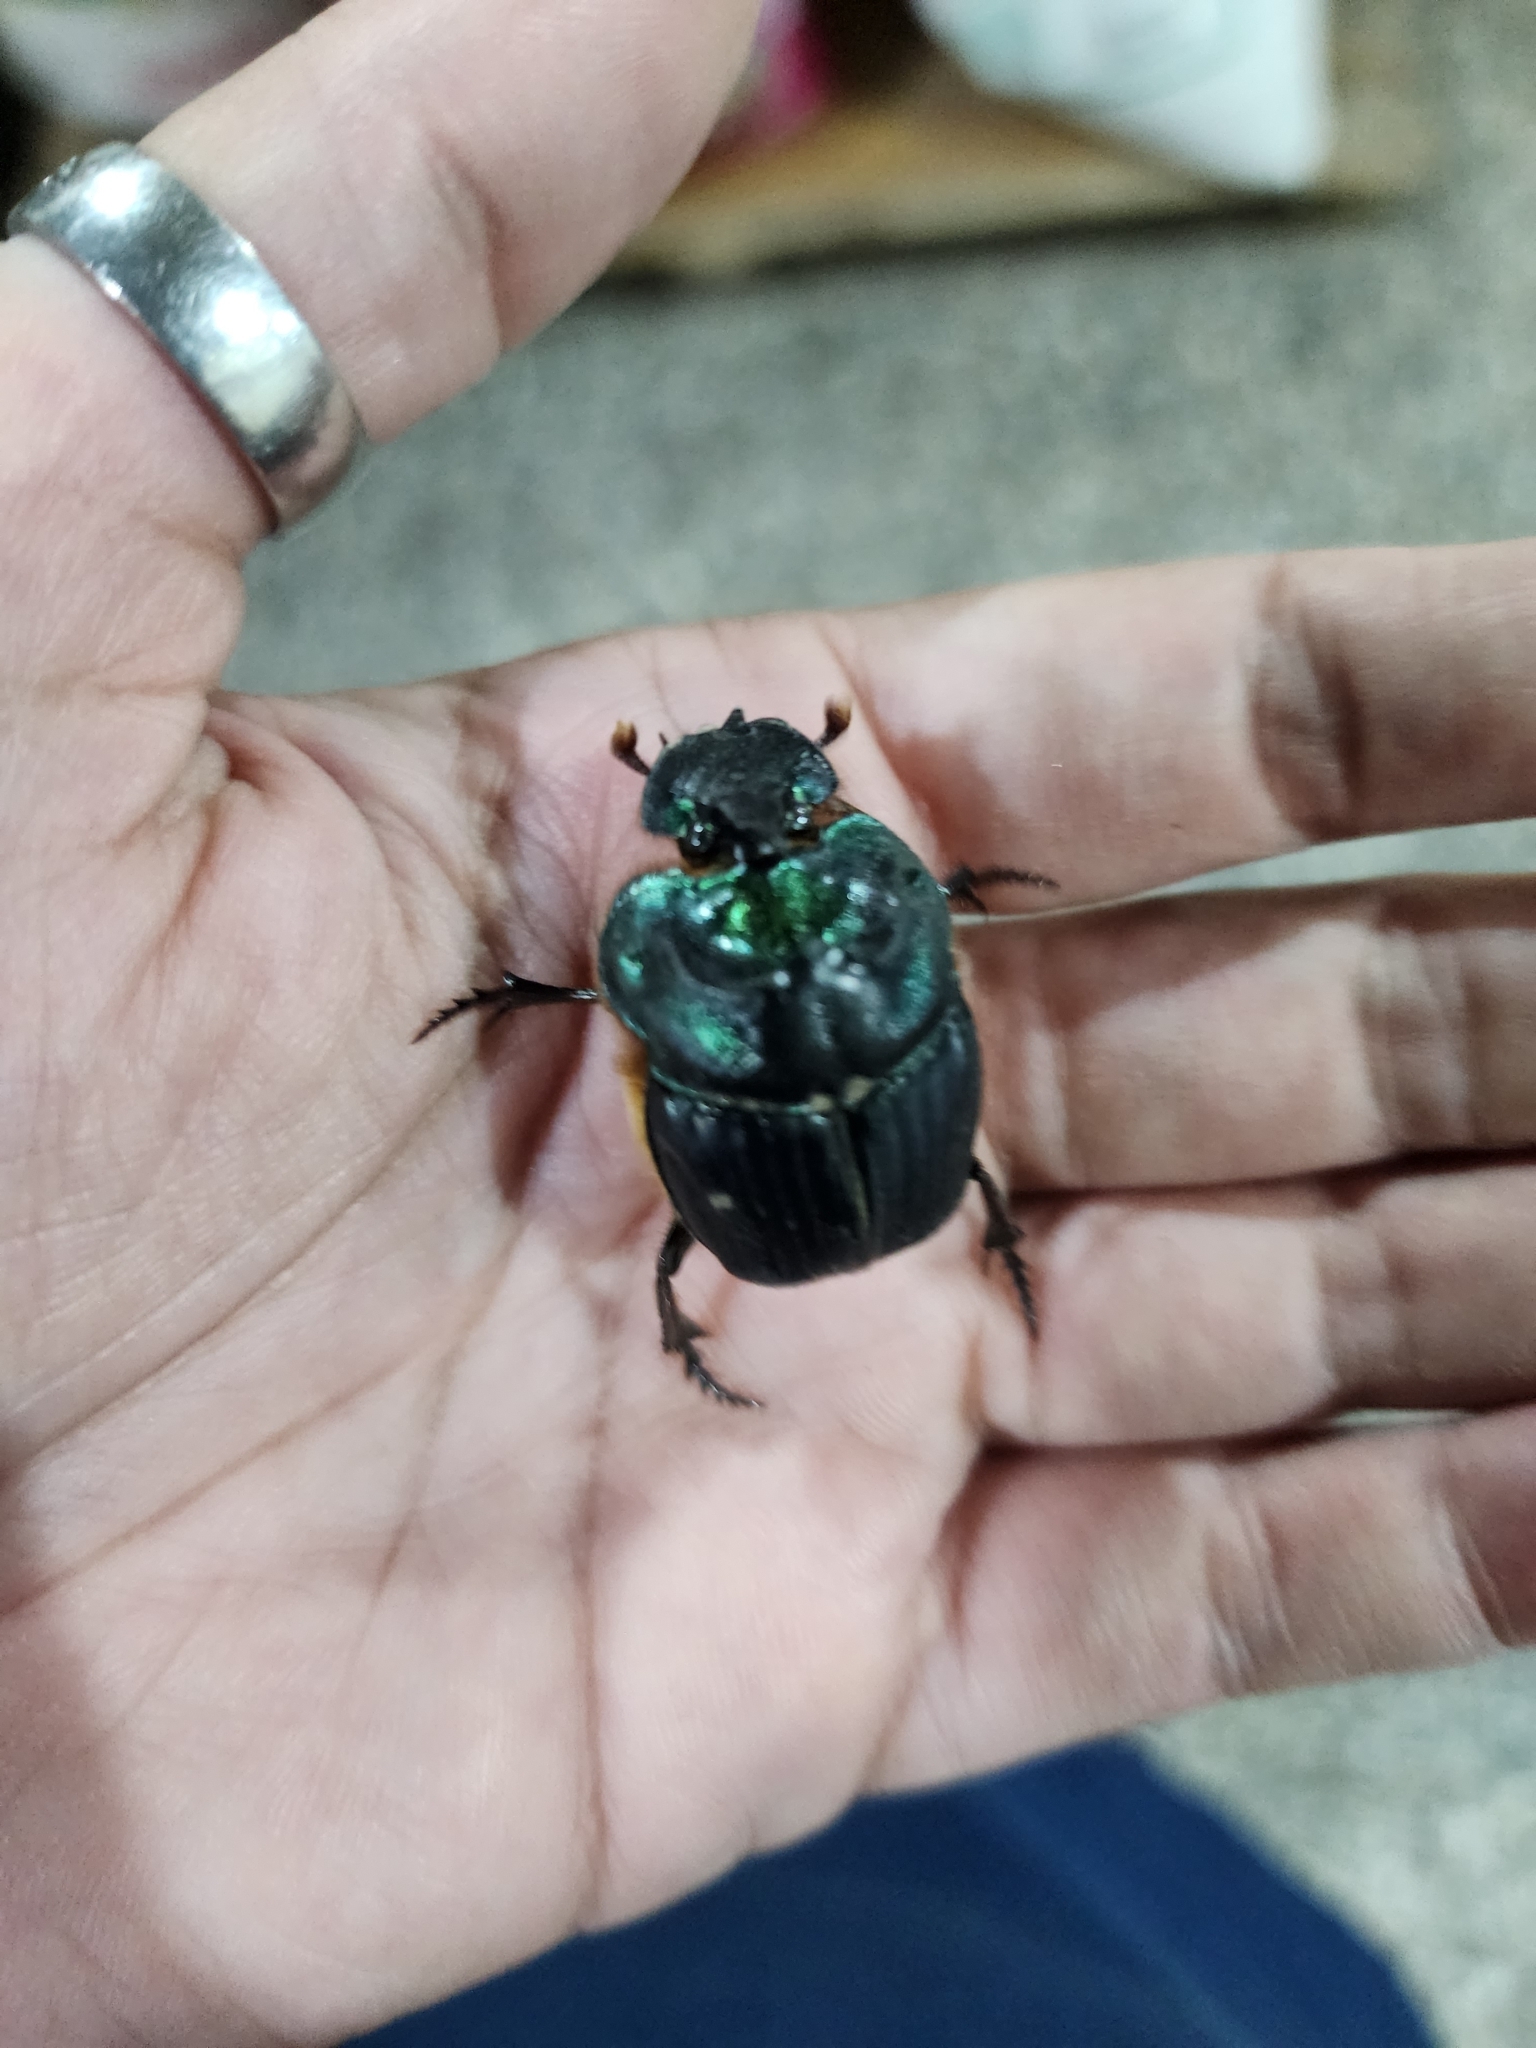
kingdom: Animalia
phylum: Arthropoda
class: Insecta
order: Coleoptera
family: Scarabaeidae
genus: Coprophanaeus
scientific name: Coprophanaeus cyanescens
